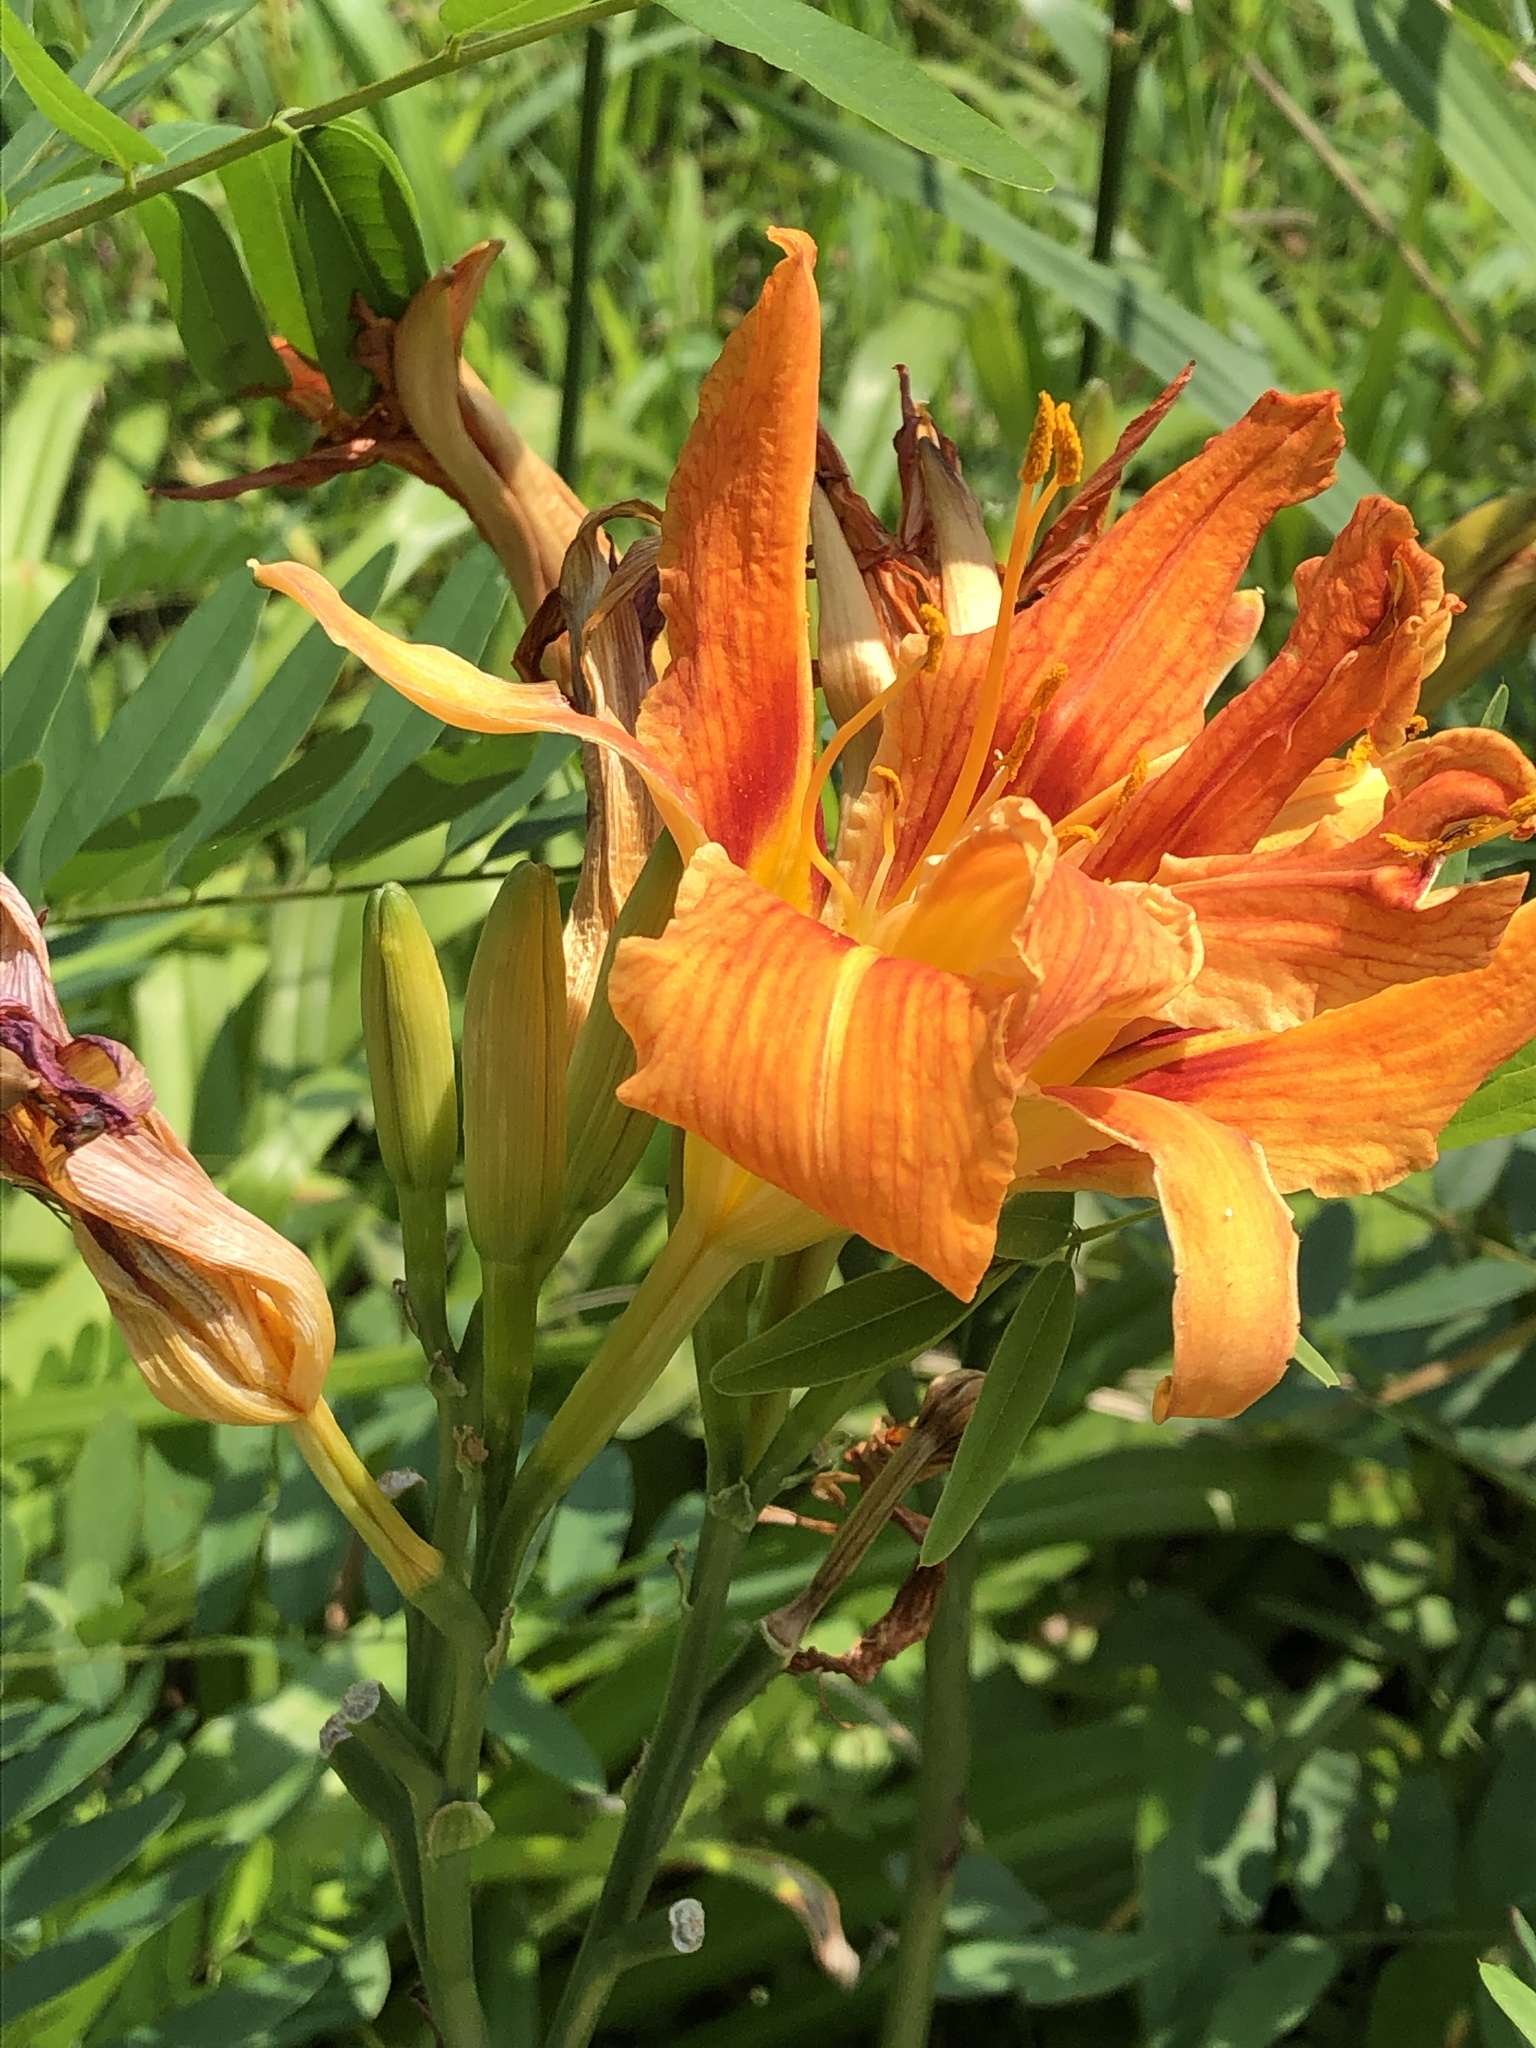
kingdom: Plantae
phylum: Tracheophyta
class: Liliopsida
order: Asparagales
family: Asphodelaceae
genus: Hemerocallis
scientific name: Hemerocallis fulva
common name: Orange day-lily
